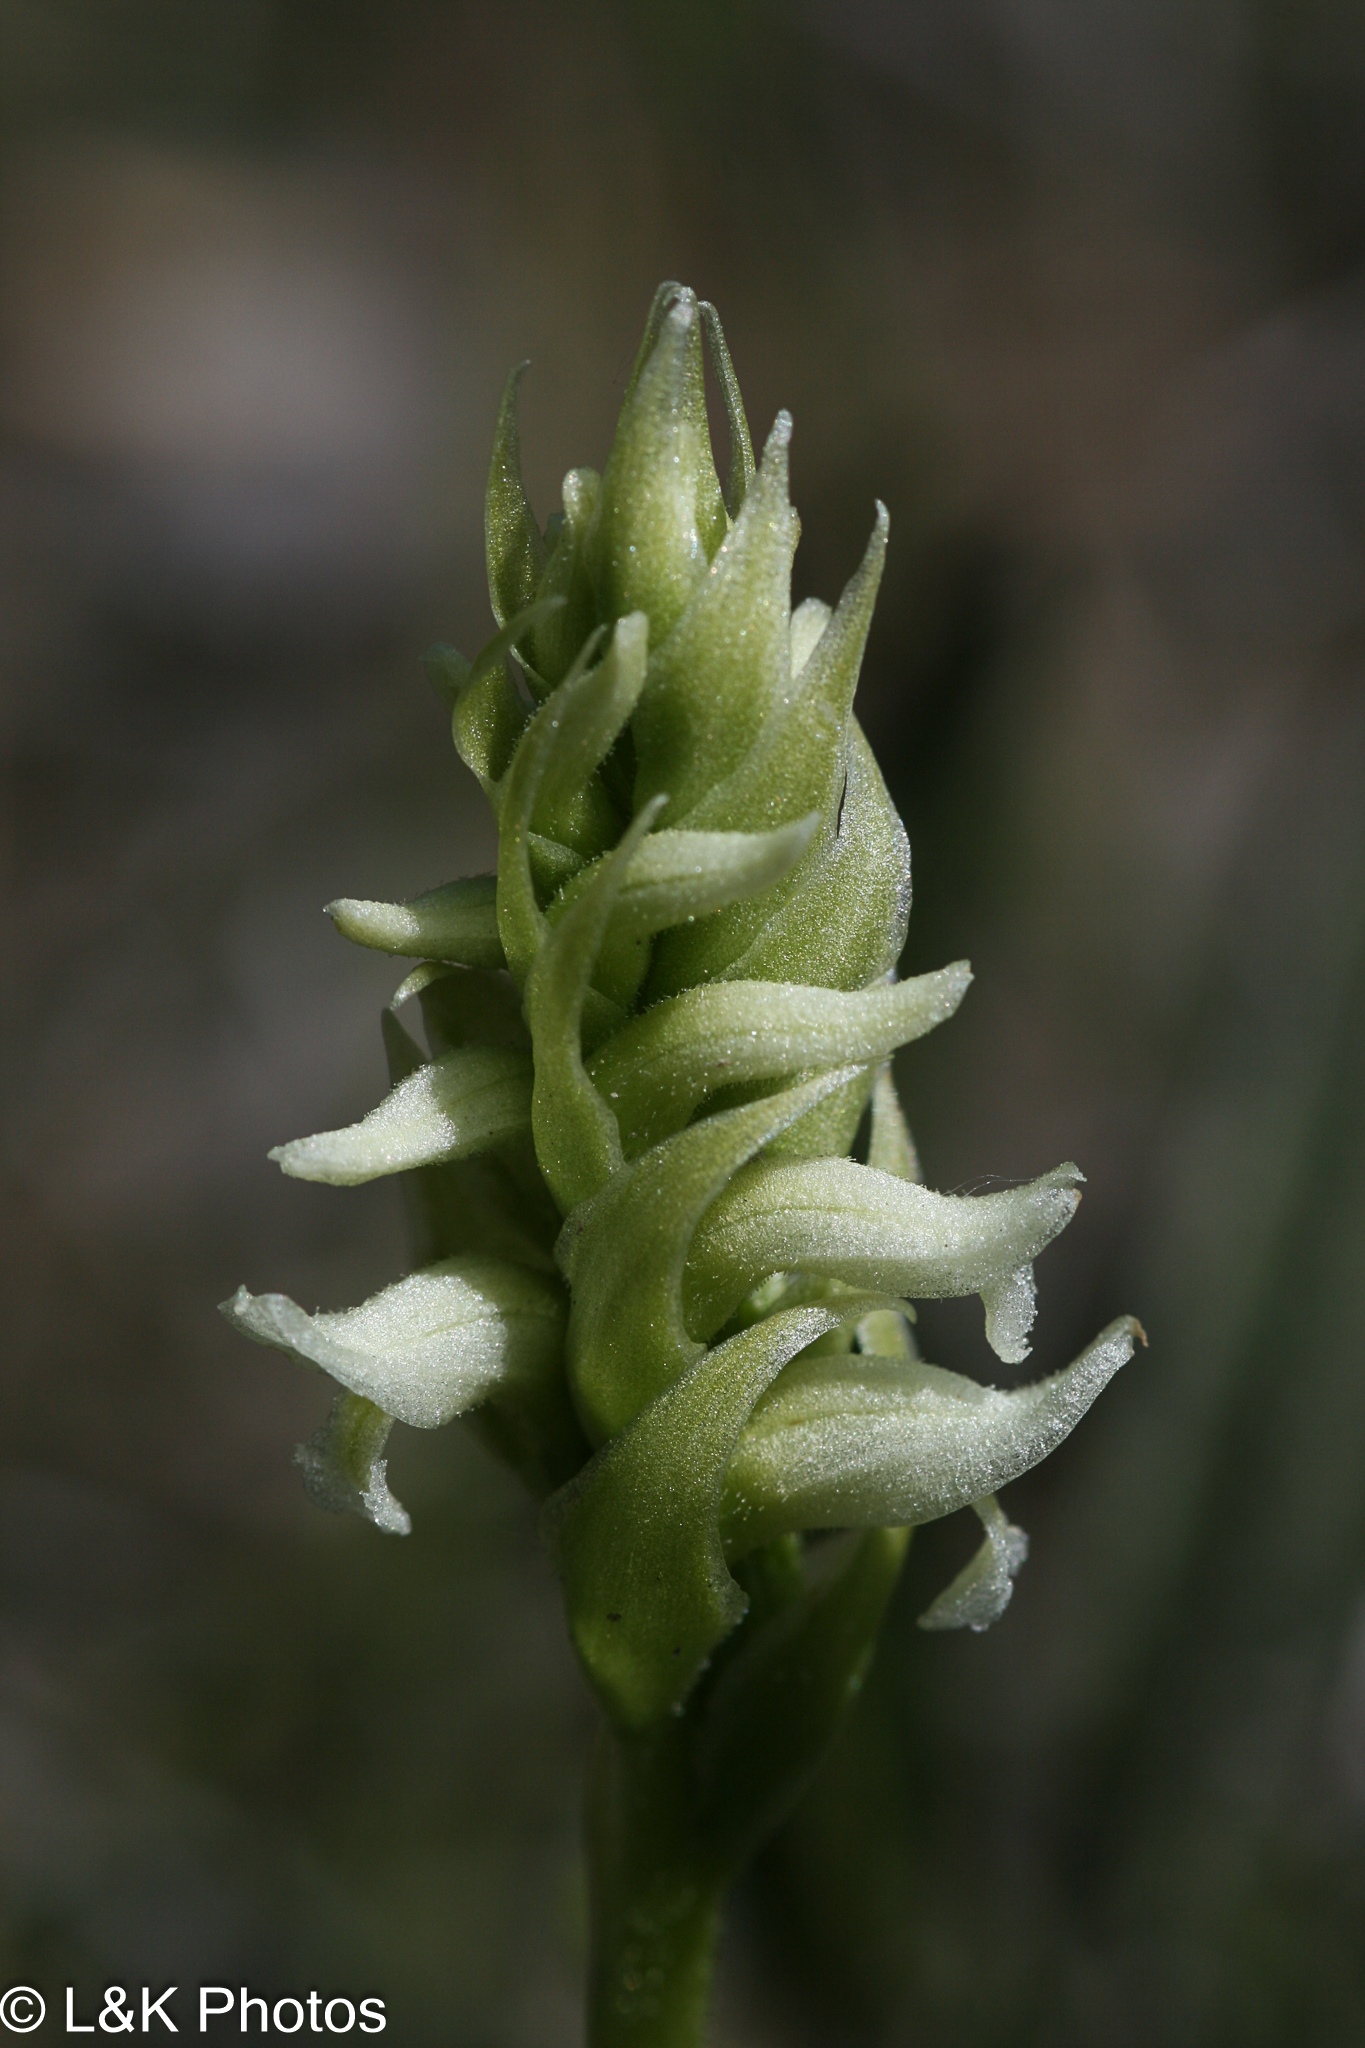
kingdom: Plantae
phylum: Tracheophyta
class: Liliopsida
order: Asparagales
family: Orchidaceae
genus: Spiranthes
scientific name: Spiranthes romanzoffiana
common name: Irish lady's-tresses
